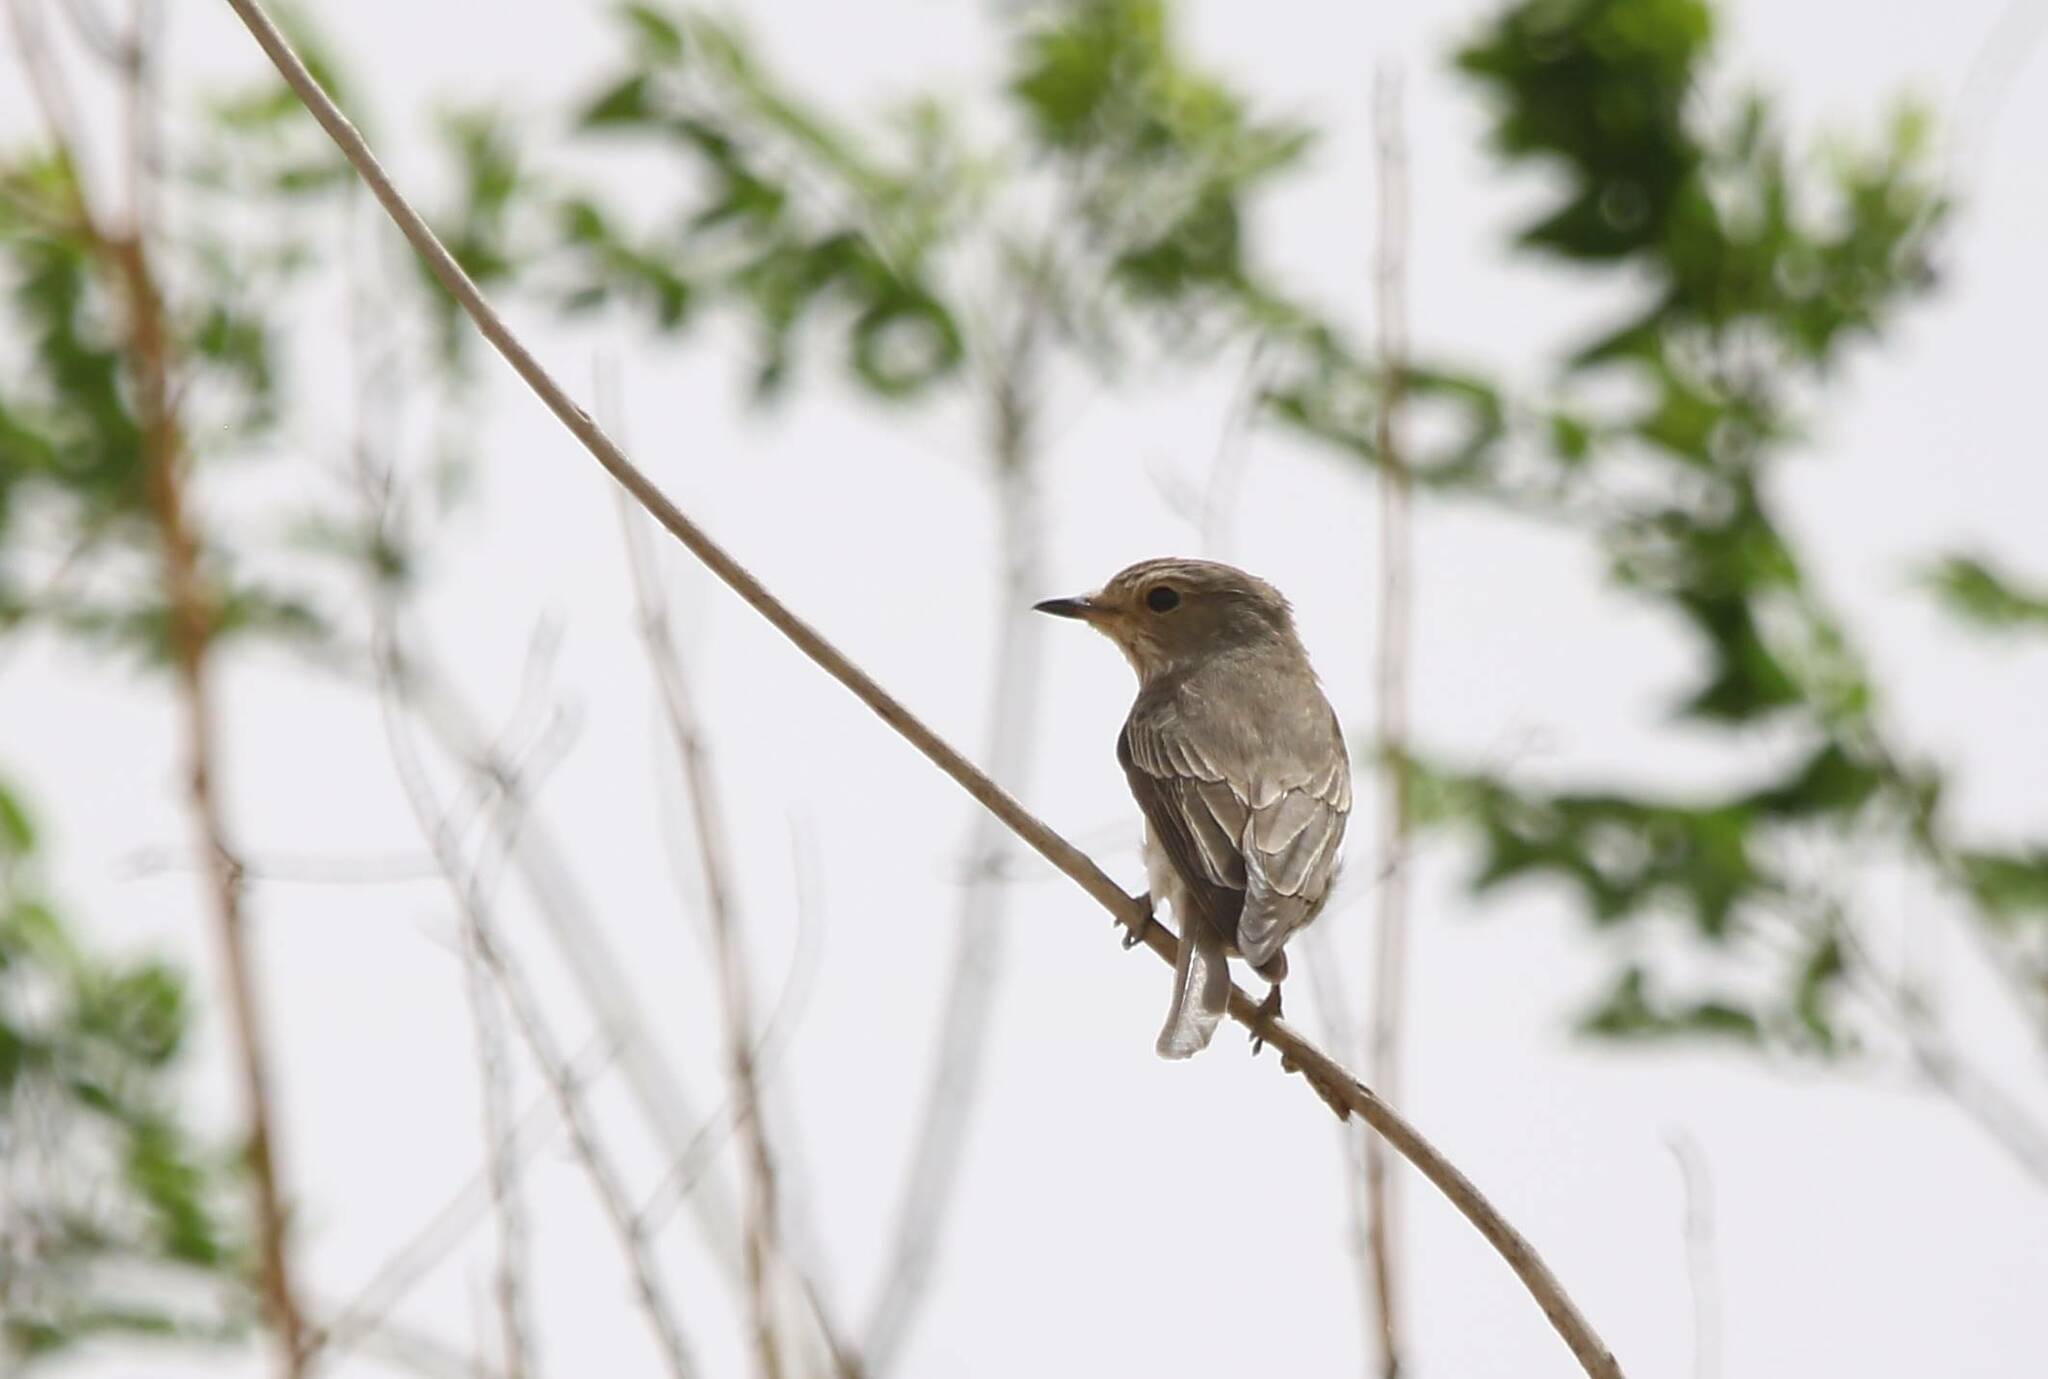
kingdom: Animalia
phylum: Chordata
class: Aves
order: Passeriformes
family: Muscicapidae
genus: Muscicapa
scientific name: Muscicapa striata
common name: Spotted flycatcher
